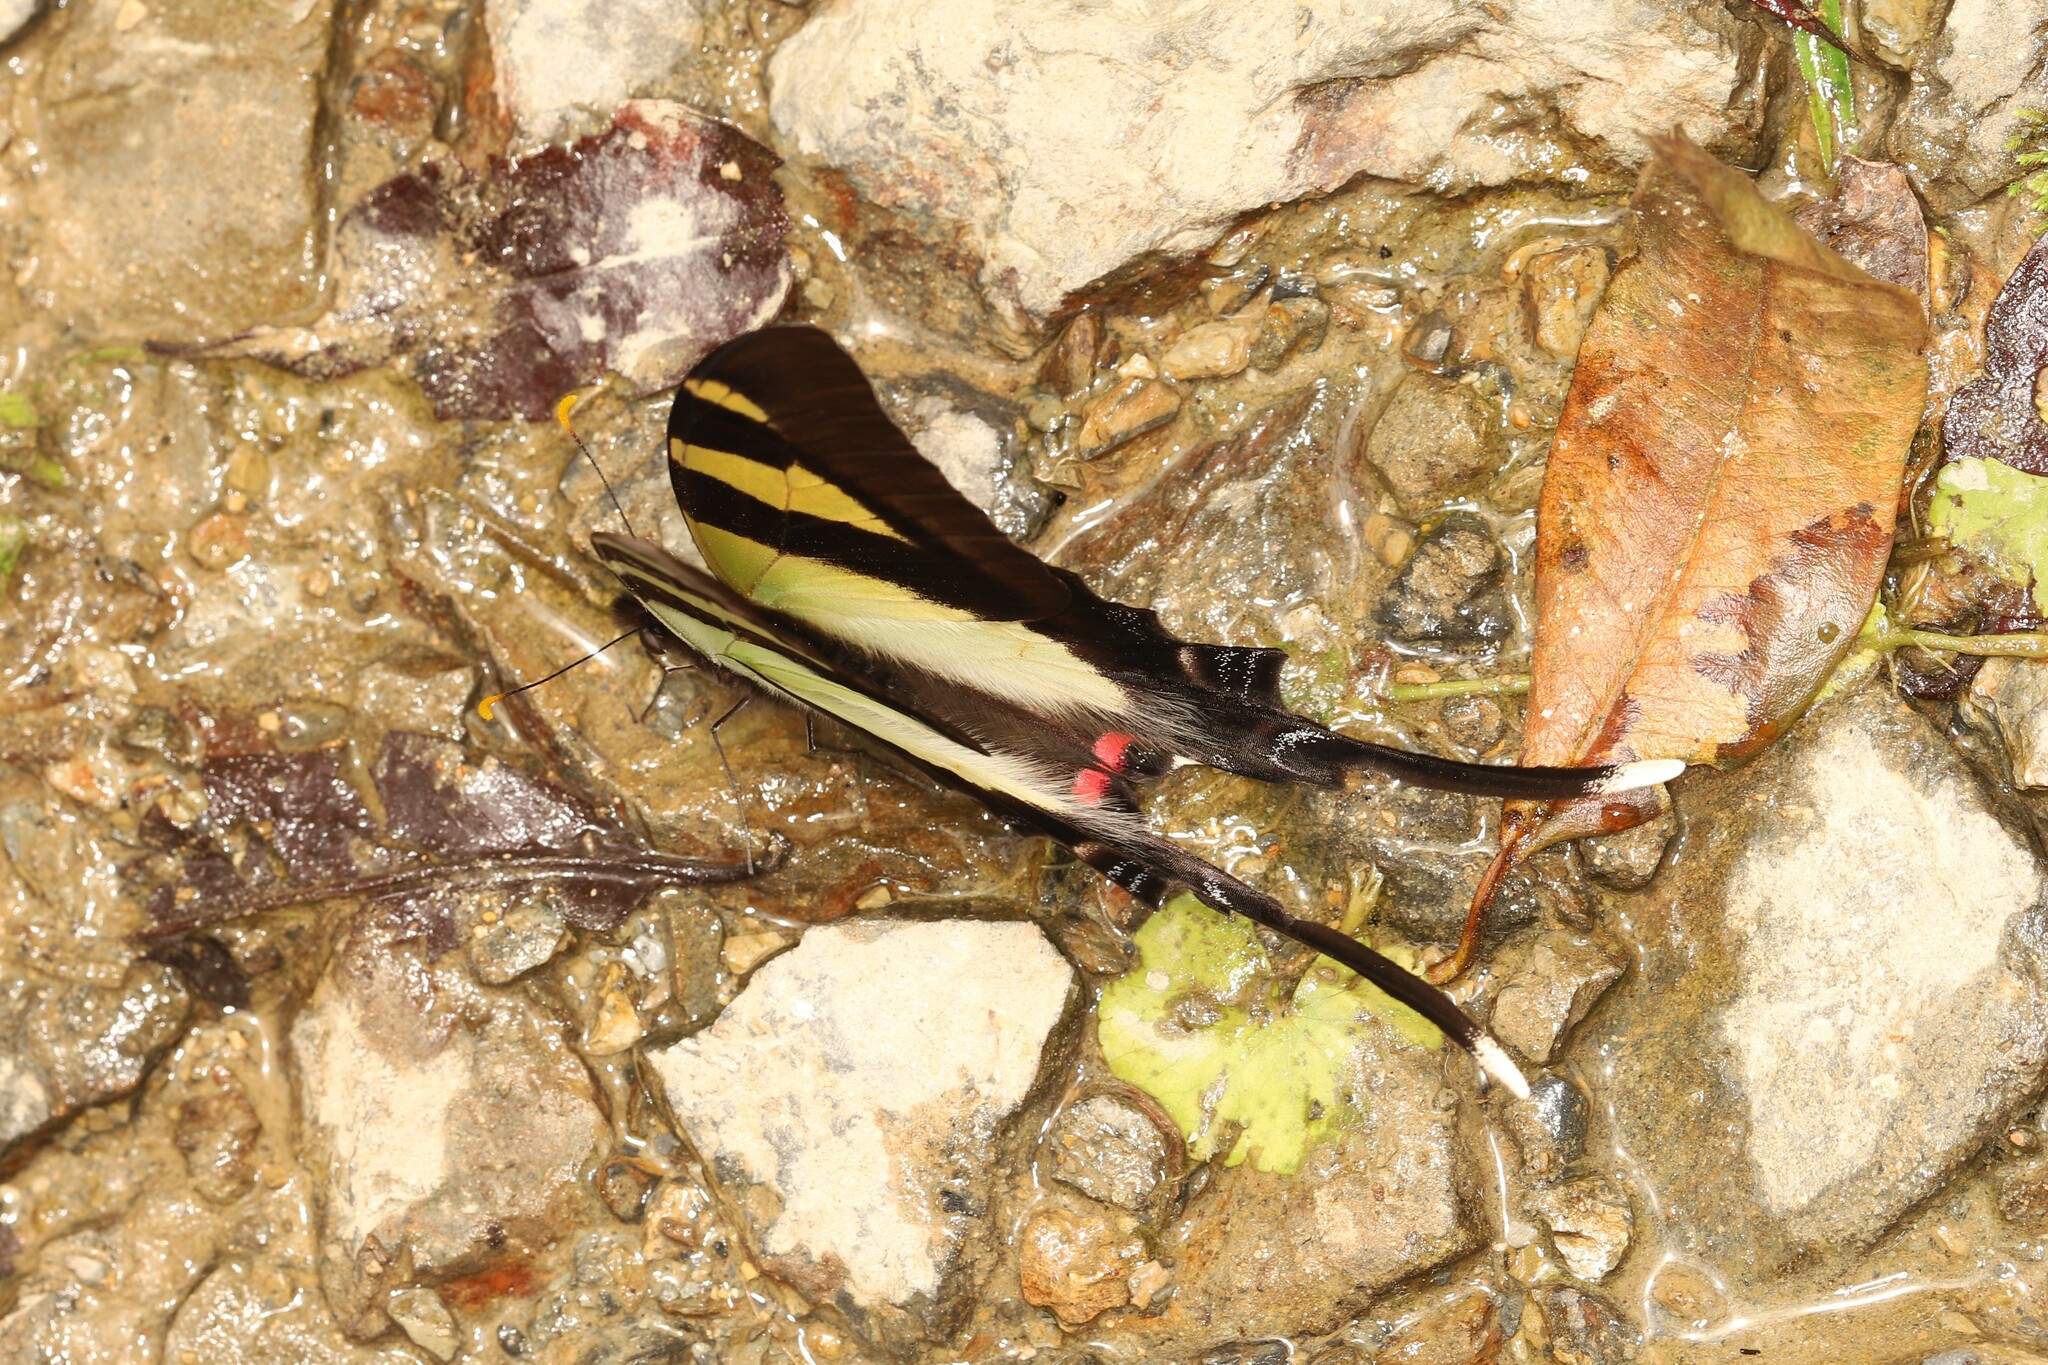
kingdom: Animalia
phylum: Arthropoda
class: Insecta
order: Lepidoptera
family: Papilionidae
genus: Eurytides
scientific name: Eurytides
